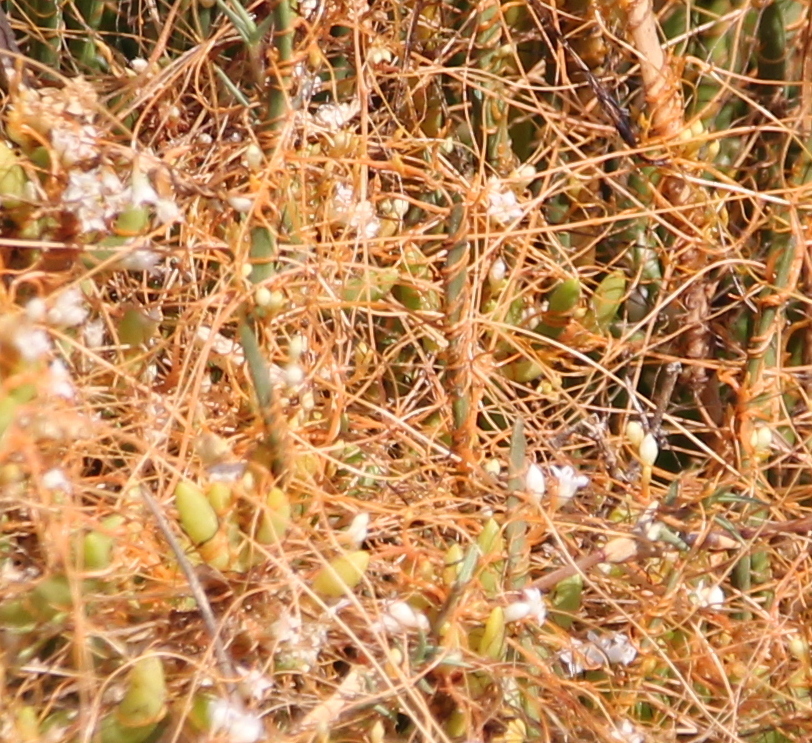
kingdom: Plantae
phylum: Tracheophyta
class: Magnoliopsida
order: Solanales
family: Convolvulaceae
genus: Cuscuta
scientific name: Cuscuta pacifica
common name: Large saltmarsh dodder
